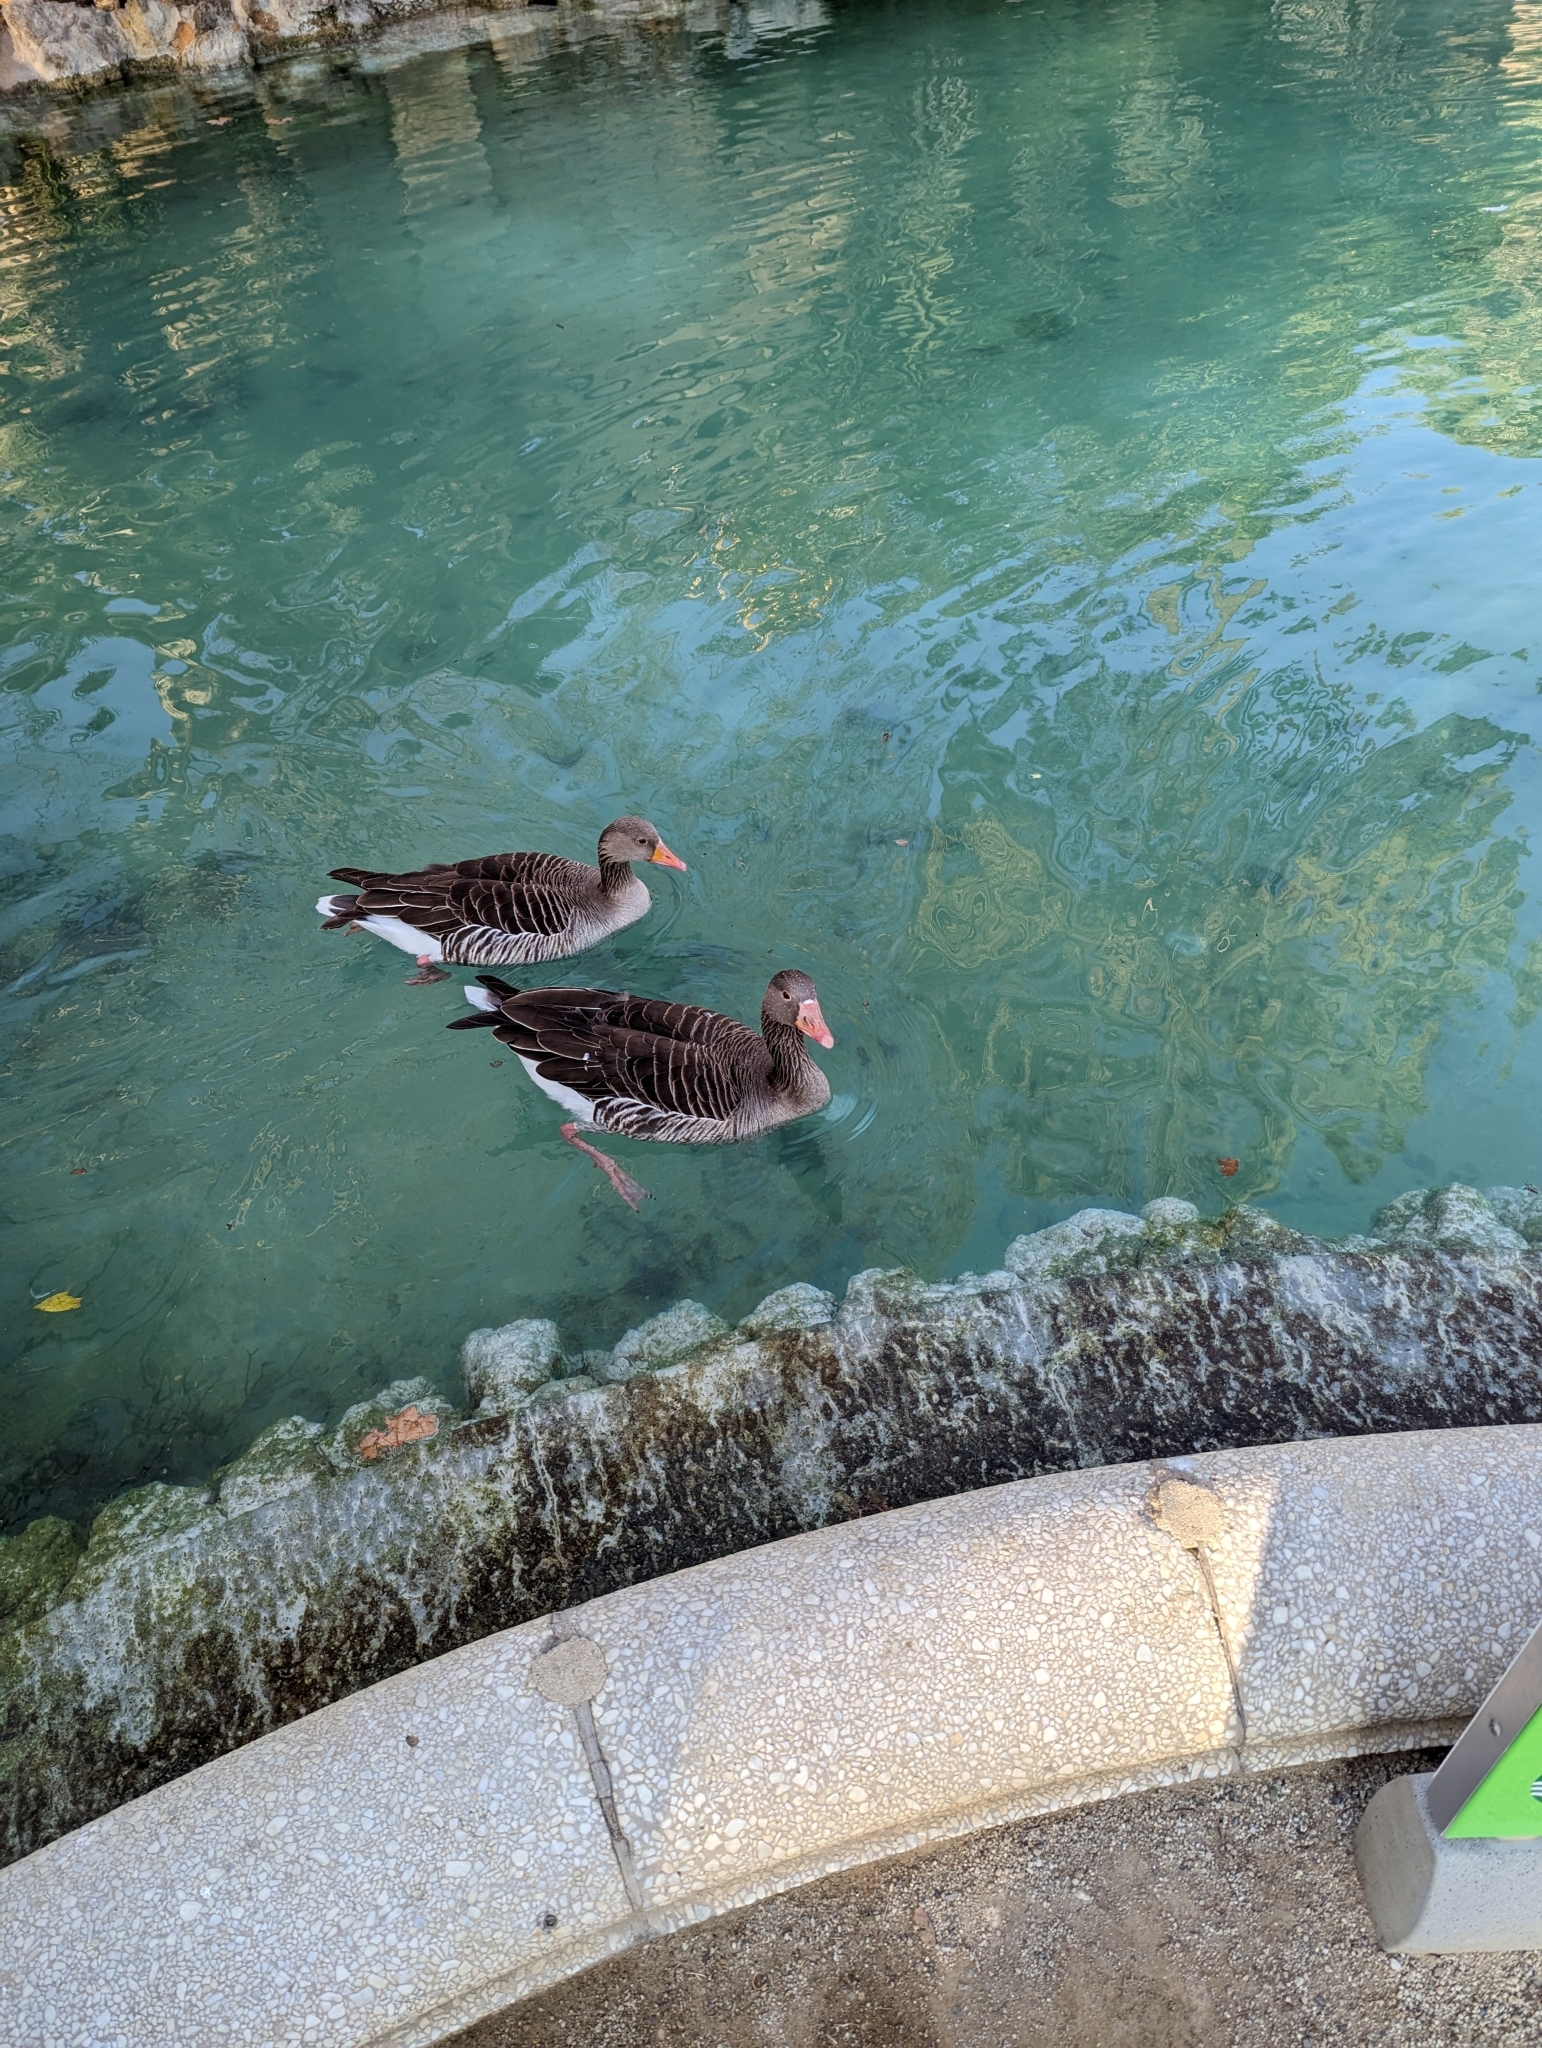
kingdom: Animalia
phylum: Chordata
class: Aves
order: Anseriformes
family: Anatidae
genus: Anser
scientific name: Anser anser
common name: Greylag goose
